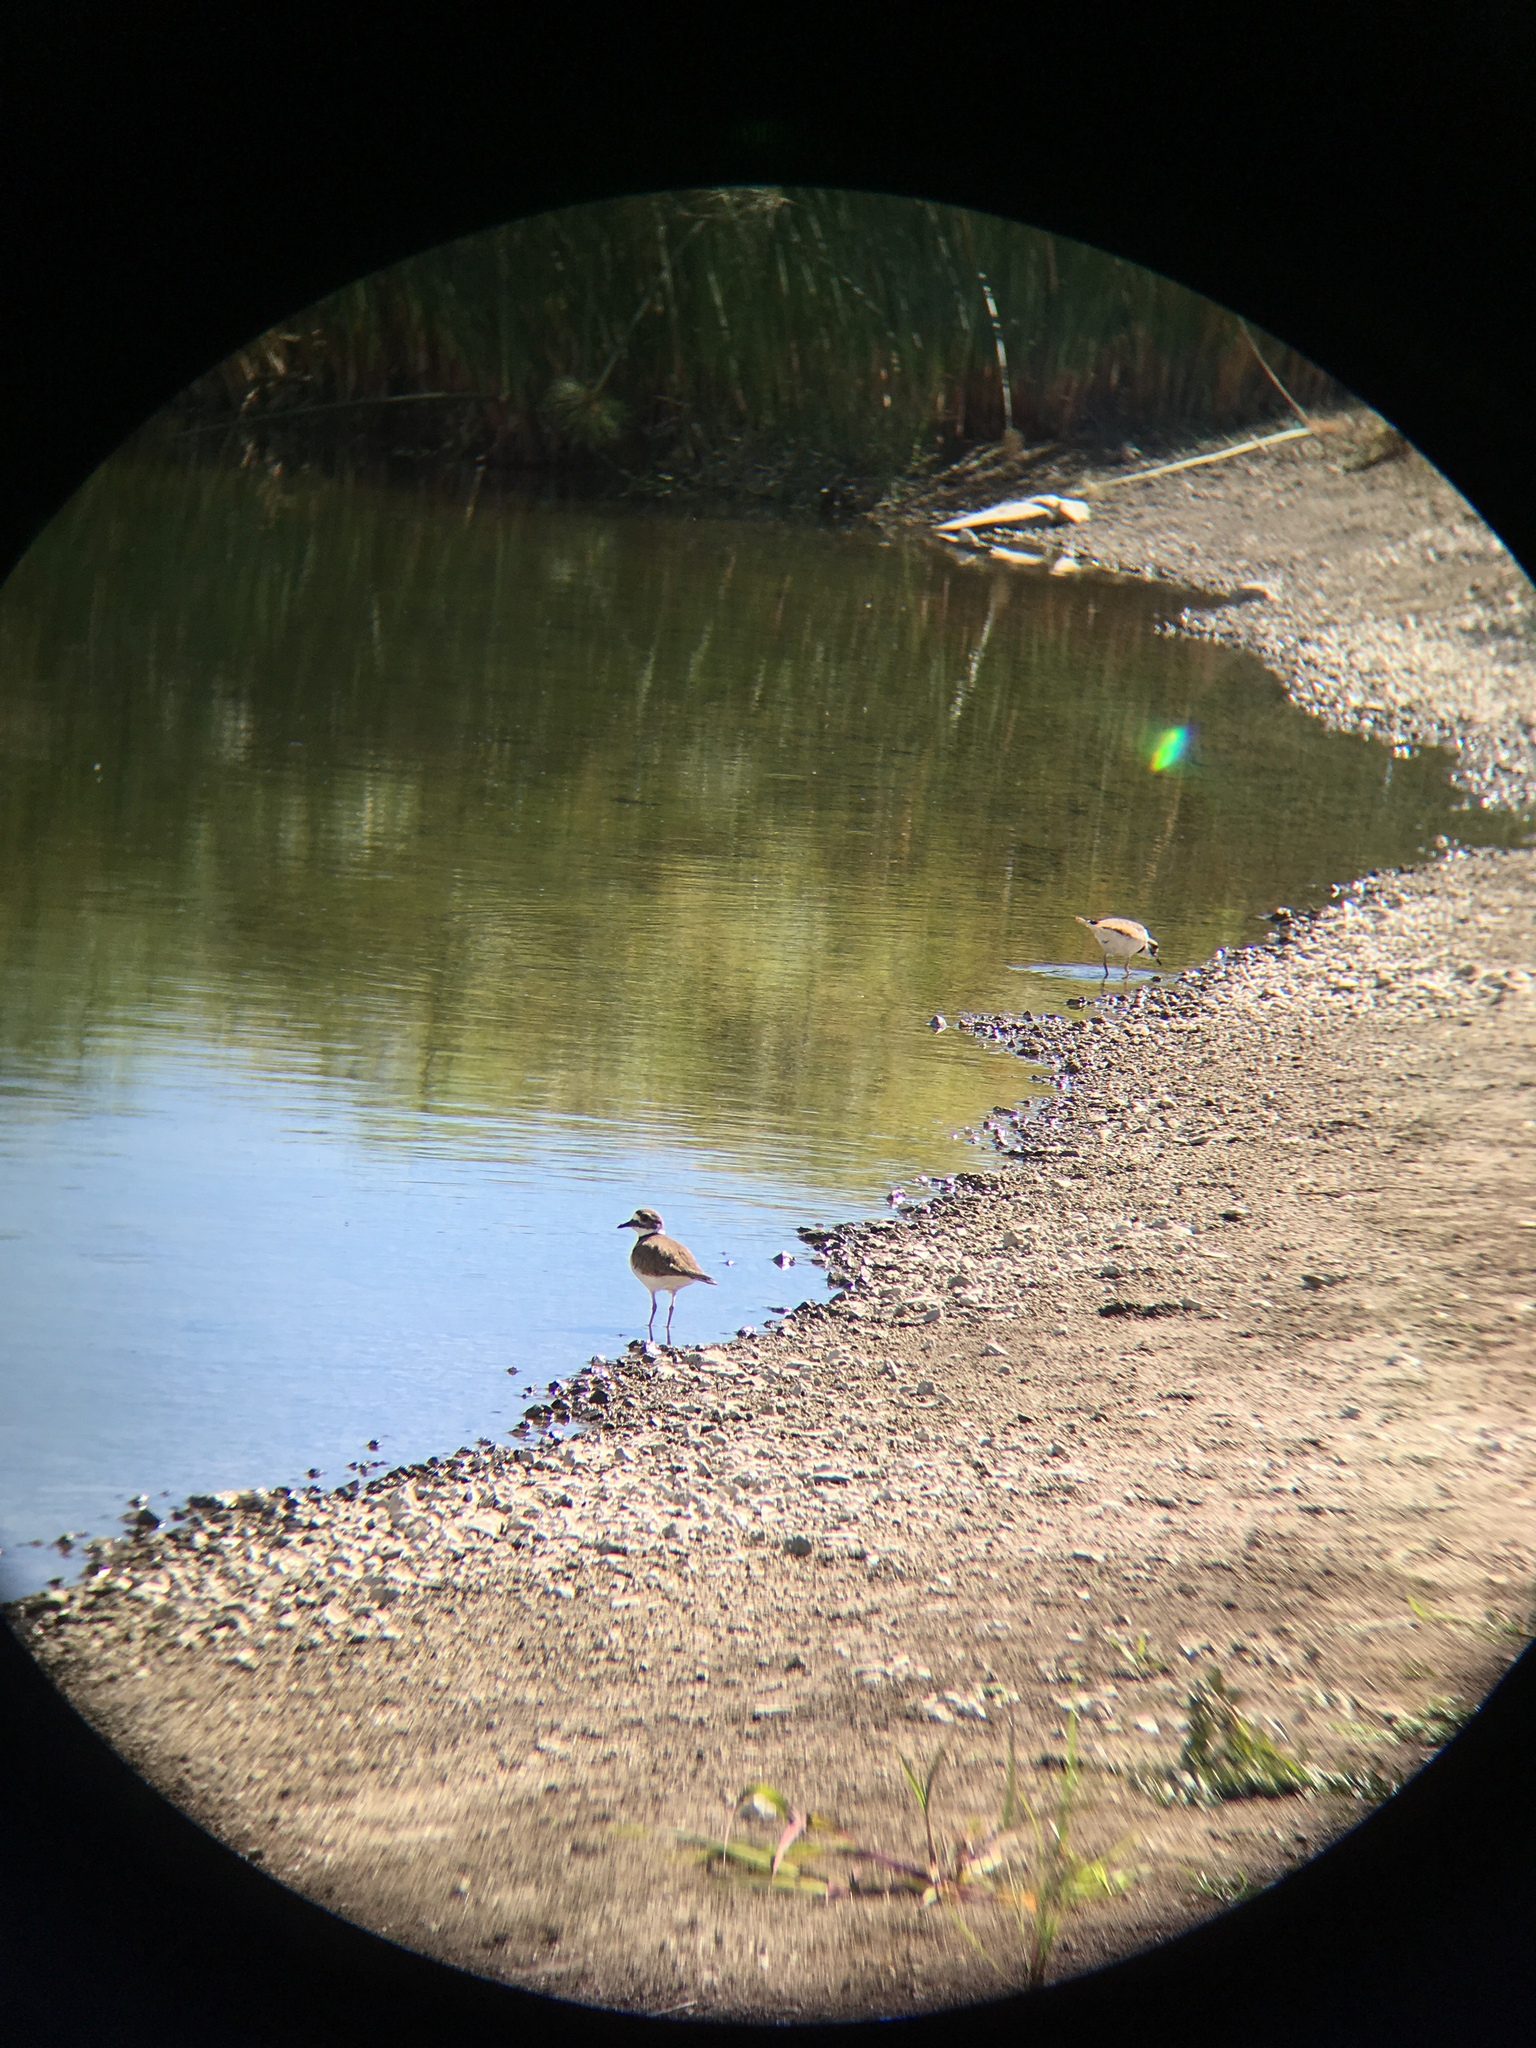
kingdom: Animalia
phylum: Chordata
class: Aves
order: Charadriiformes
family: Charadriidae
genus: Charadrius
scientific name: Charadrius vociferus
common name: Killdeer
